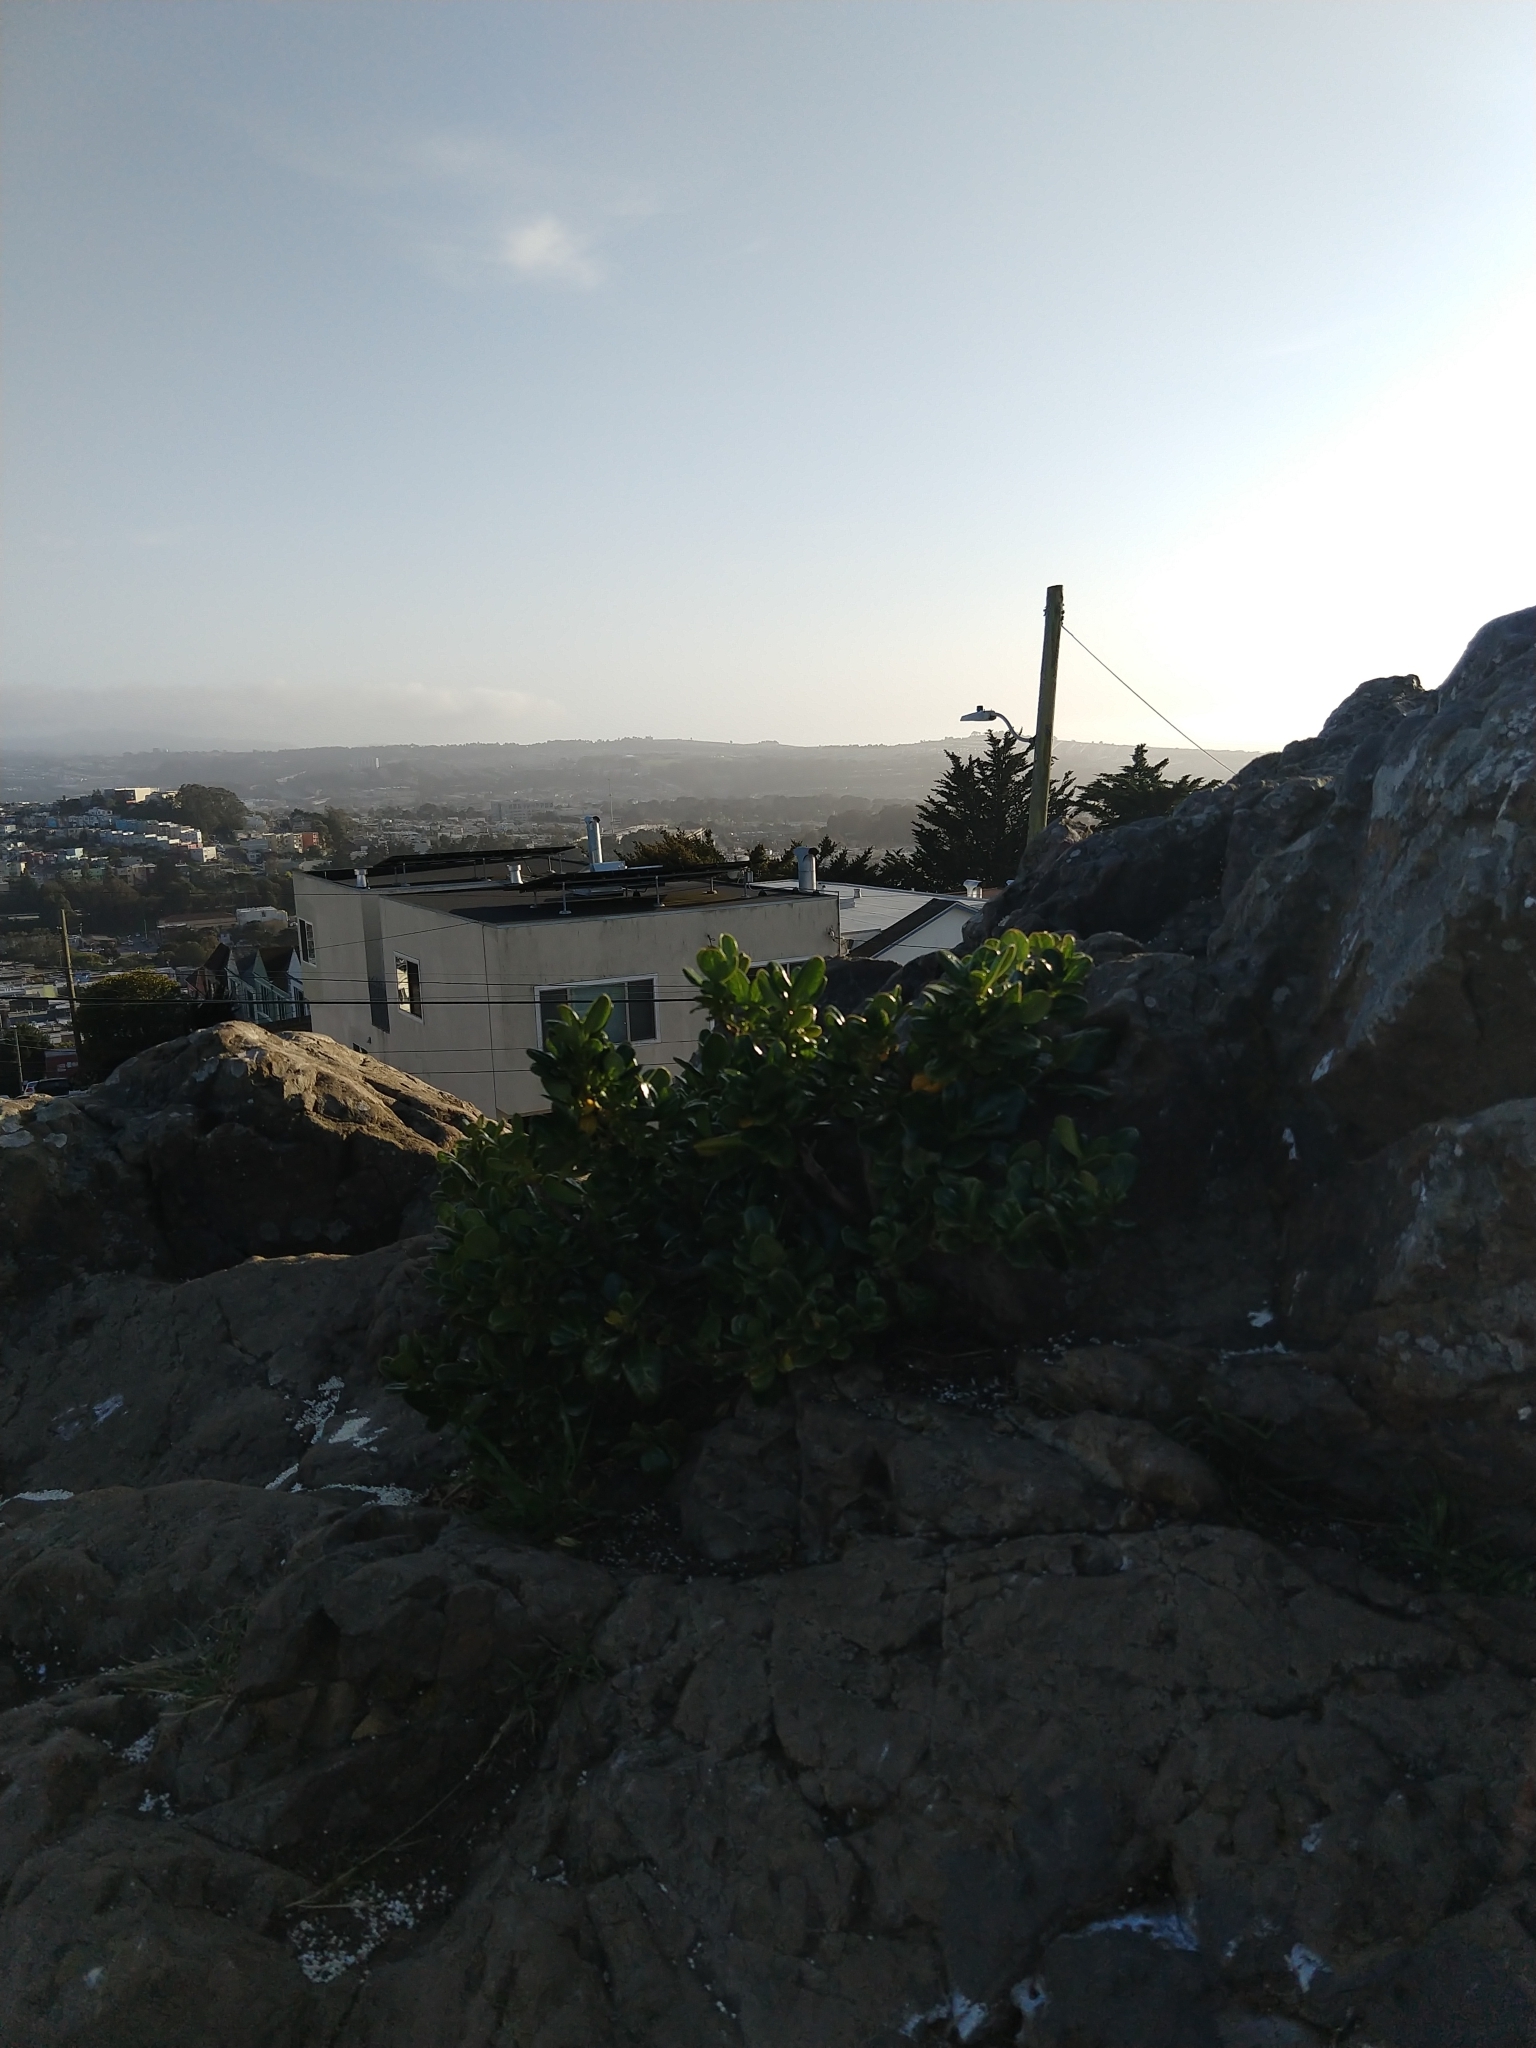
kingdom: Plantae
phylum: Tracheophyta
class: Magnoliopsida
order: Gentianales
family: Rubiaceae
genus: Coprosma
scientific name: Coprosma repens
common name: Tree bedstraw
